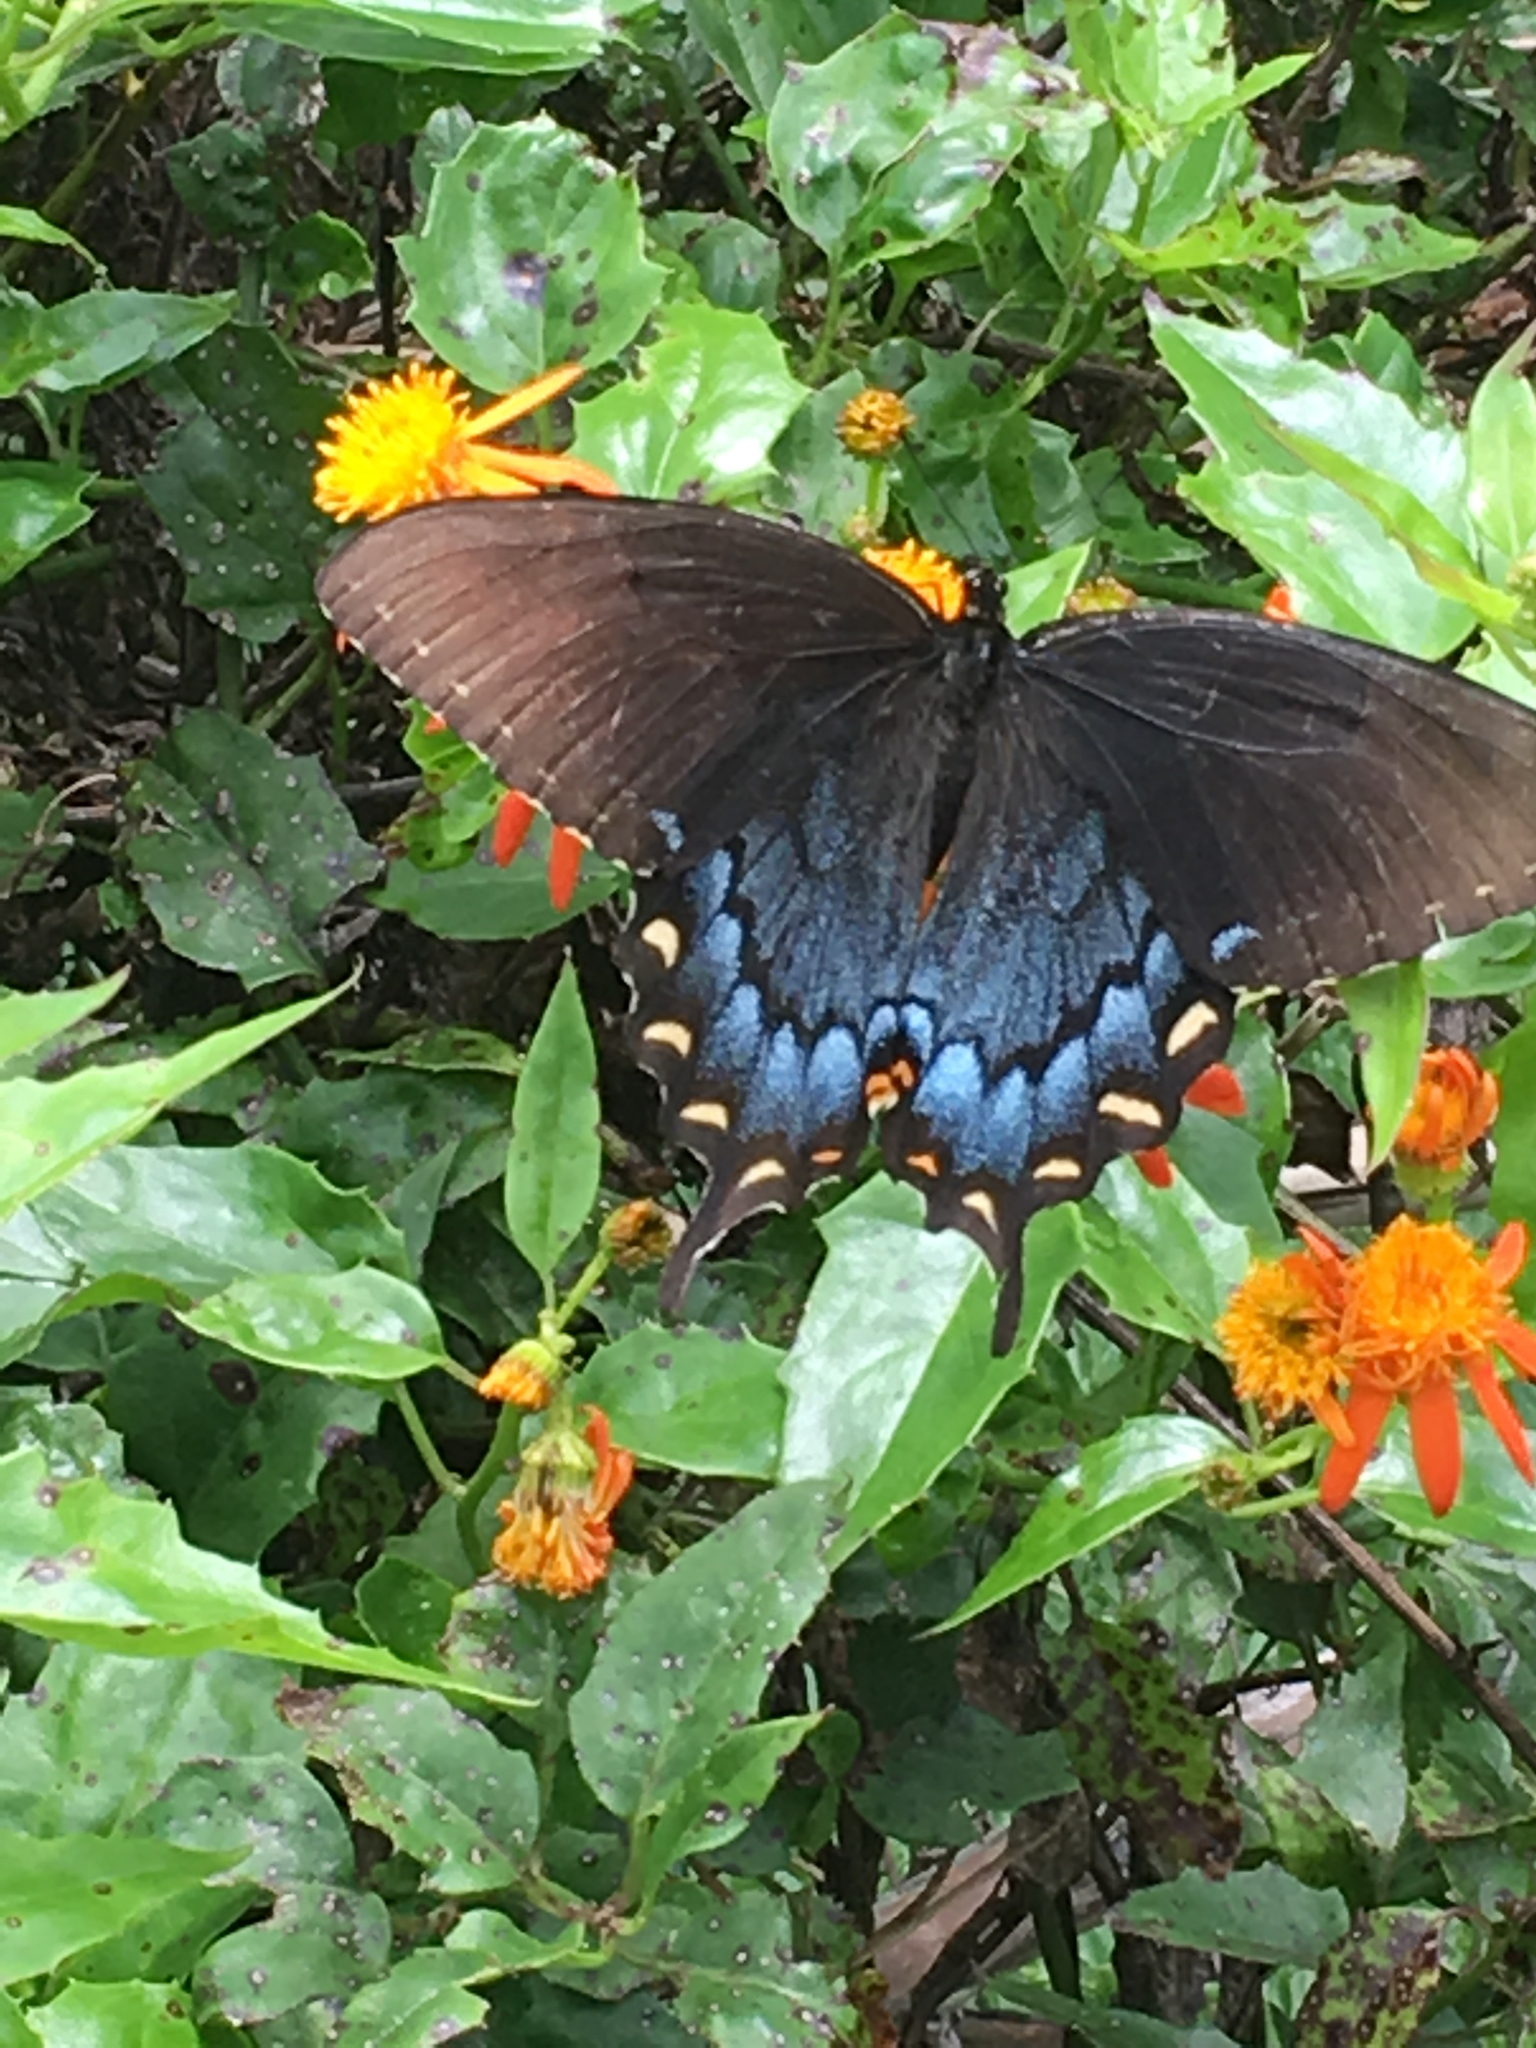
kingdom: Animalia
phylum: Arthropoda
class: Insecta
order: Lepidoptera
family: Papilionidae
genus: Papilio
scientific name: Papilio glaucus
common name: Tiger swallowtail
